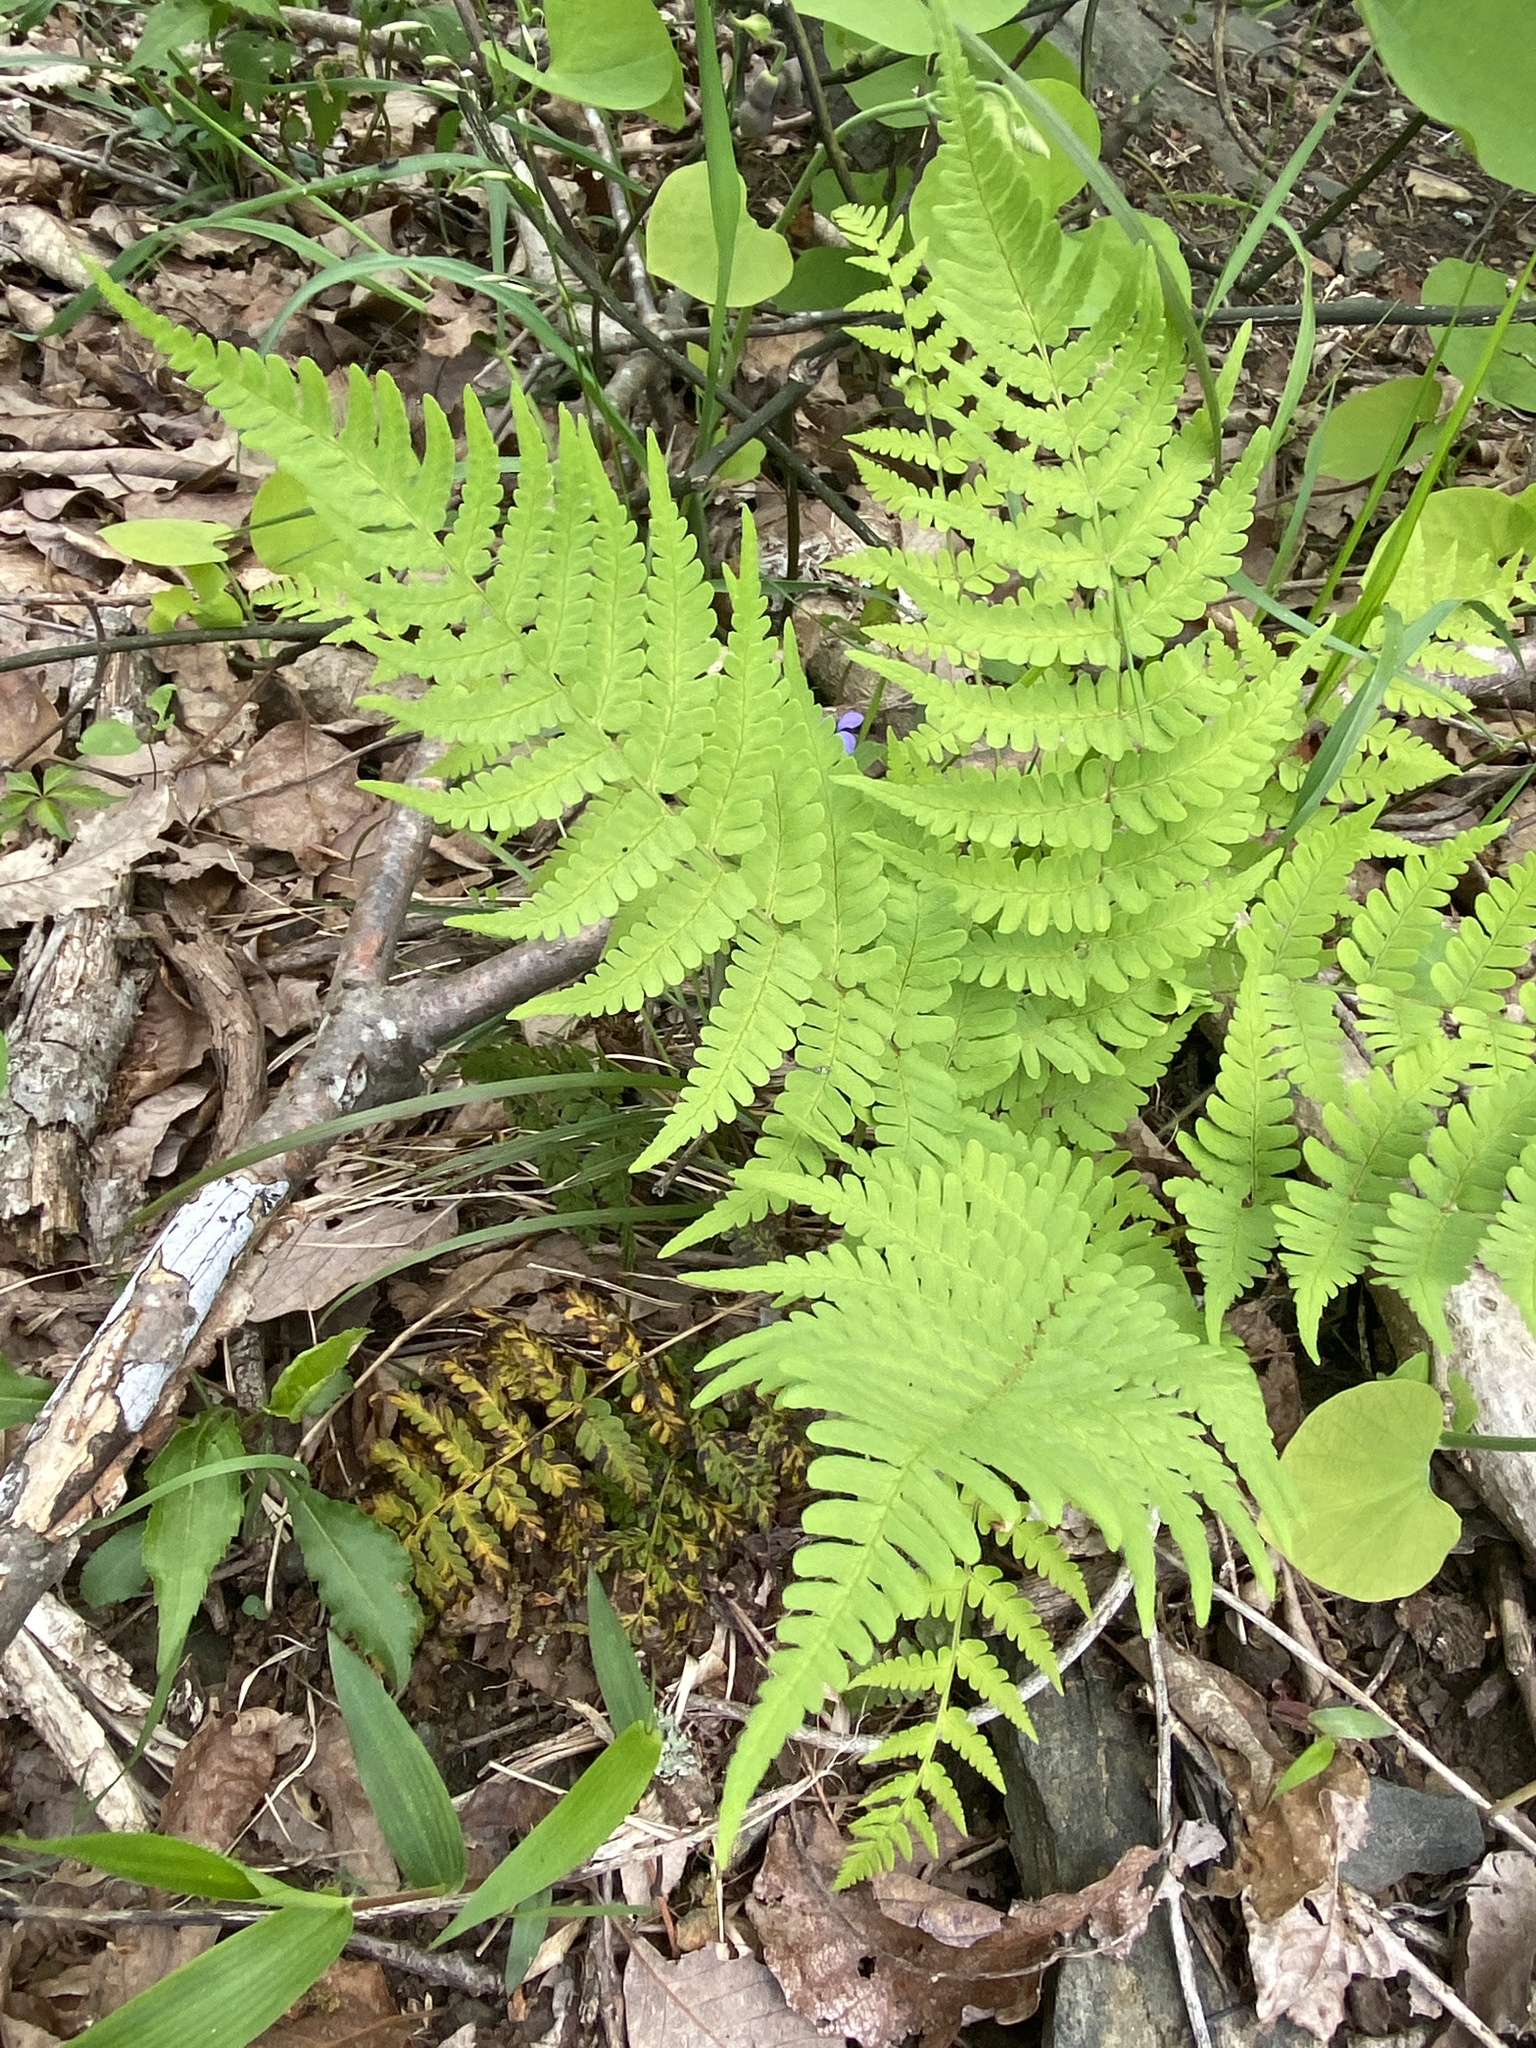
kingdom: Plantae
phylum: Tracheophyta
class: Polypodiopsida
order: Polypodiales
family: Dryopteridaceae
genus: Dryopteris
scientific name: Dryopteris marginalis
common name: Marginal wood fern
